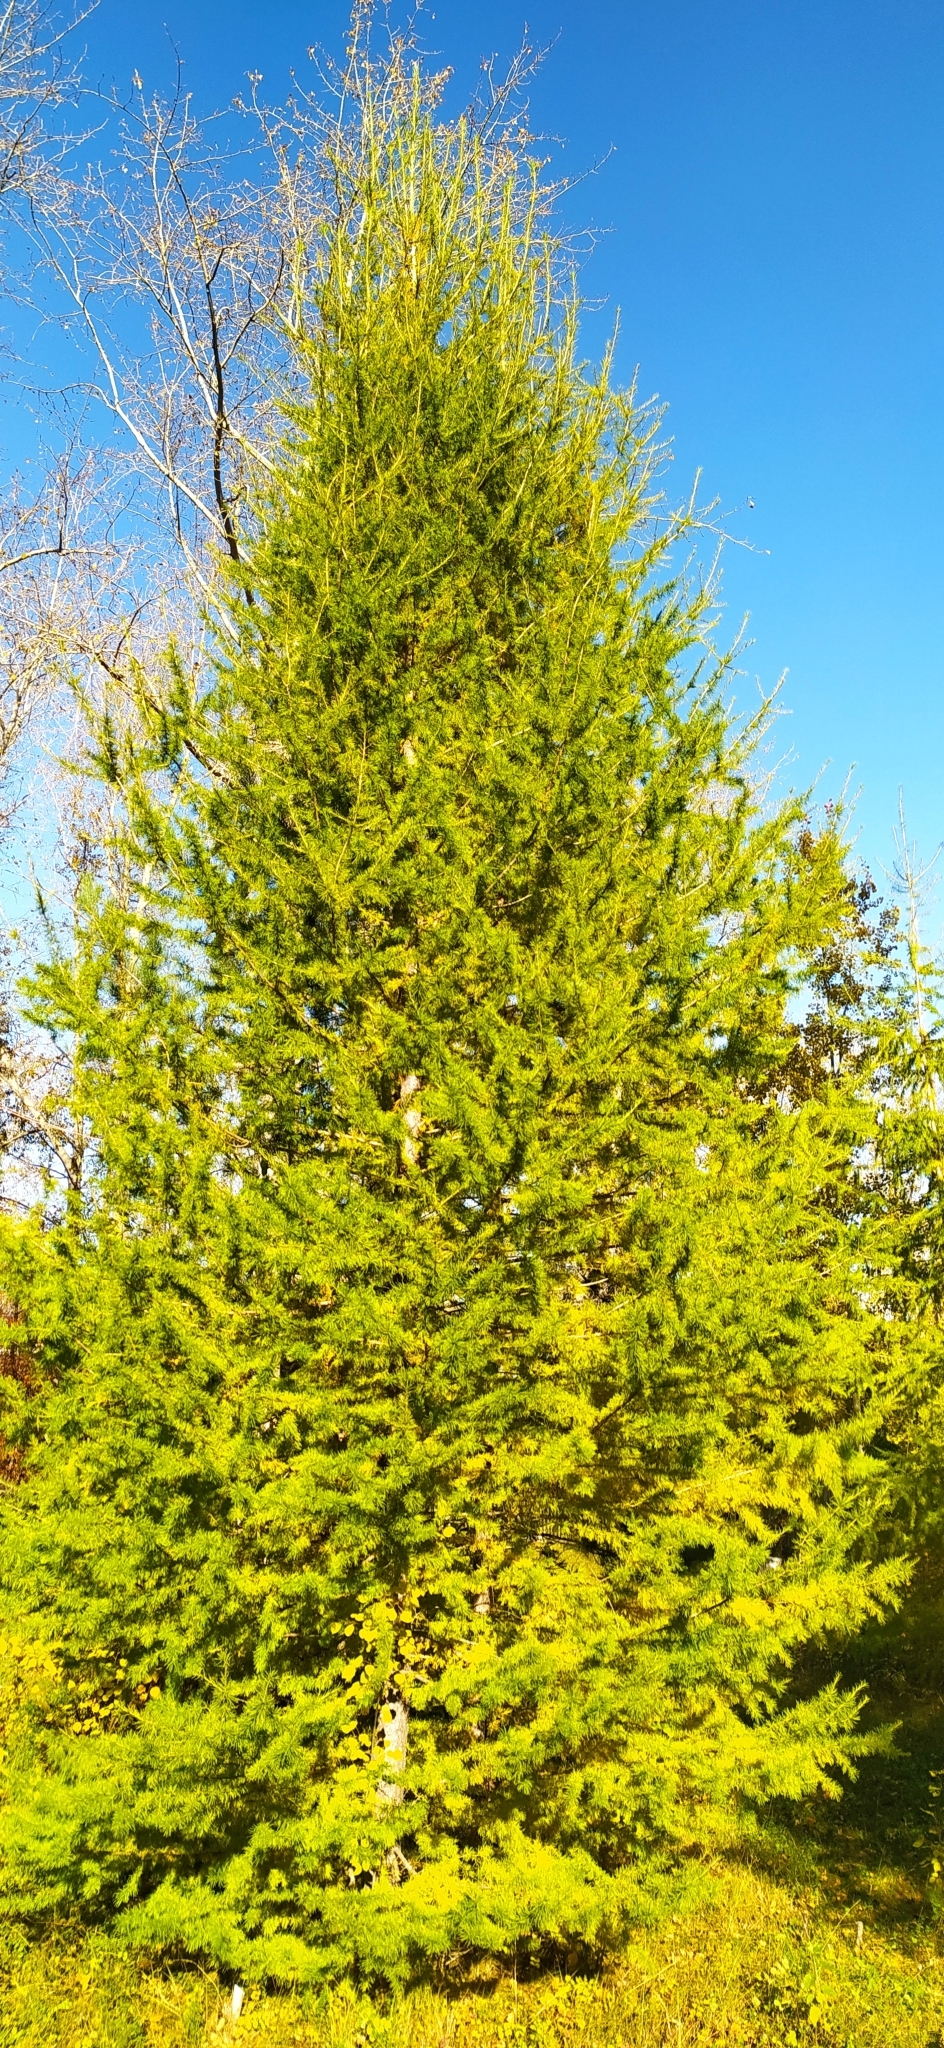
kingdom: Plantae
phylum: Tracheophyta
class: Pinopsida
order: Pinales
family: Pinaceae
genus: Larix
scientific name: Larix sibirica
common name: Siberian larch
